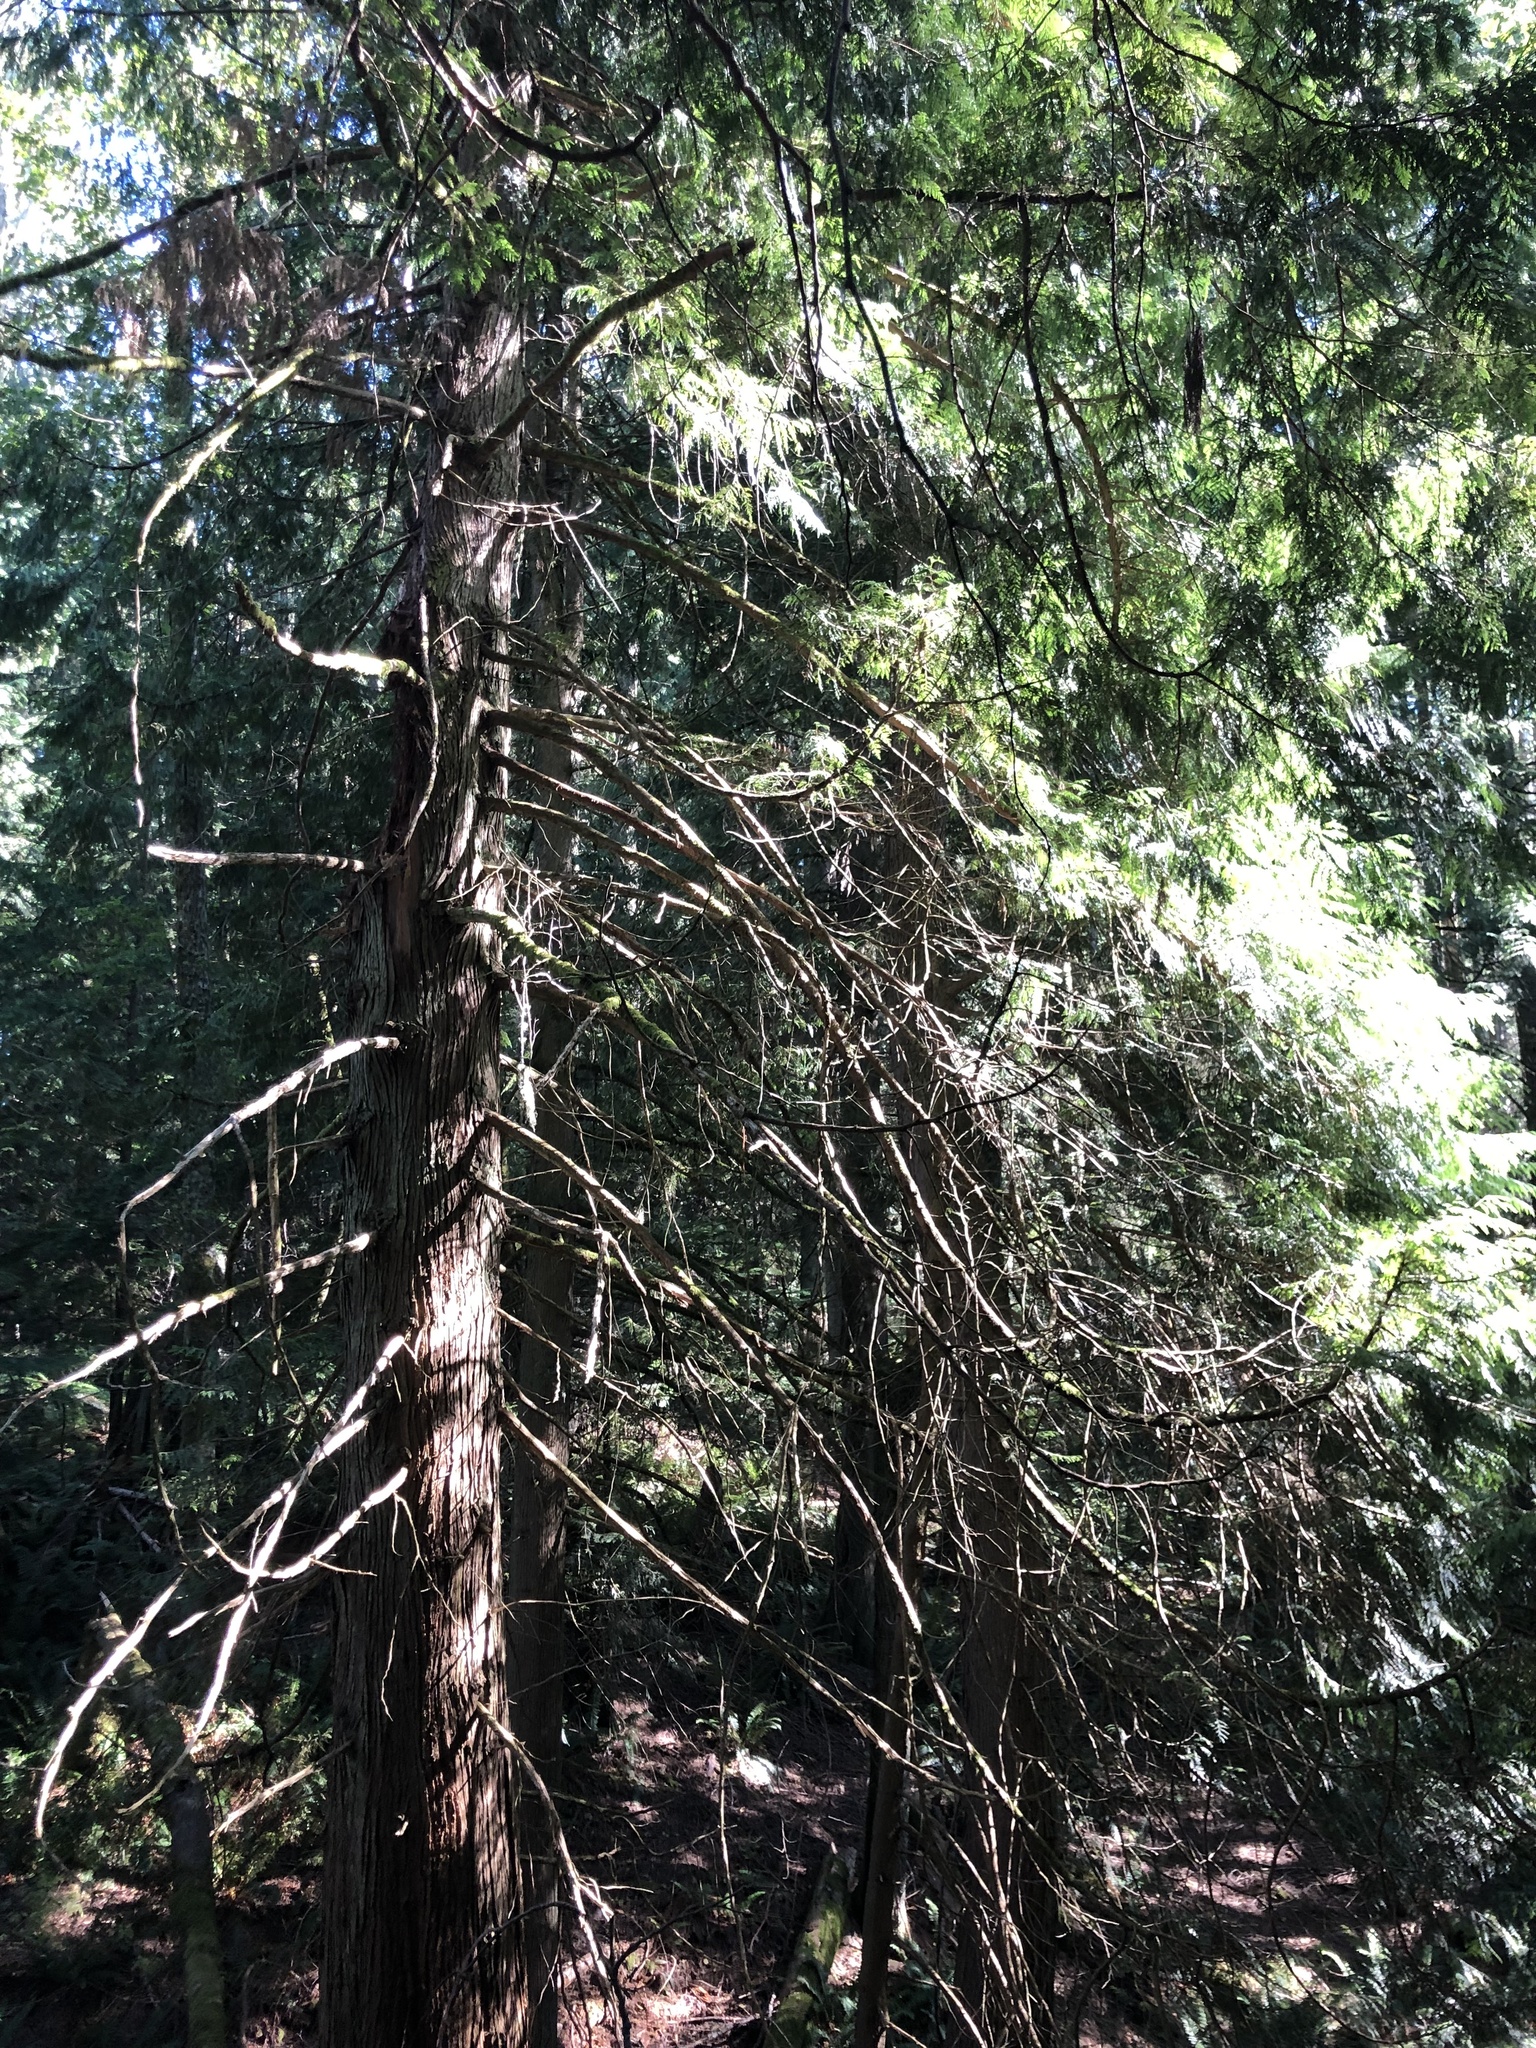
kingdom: Plantae
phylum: Tracheophyta
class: Pinopsida
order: Pinales
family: Cupressaceae
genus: Thuja
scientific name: Thuja plicata
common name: Western red-cedar
